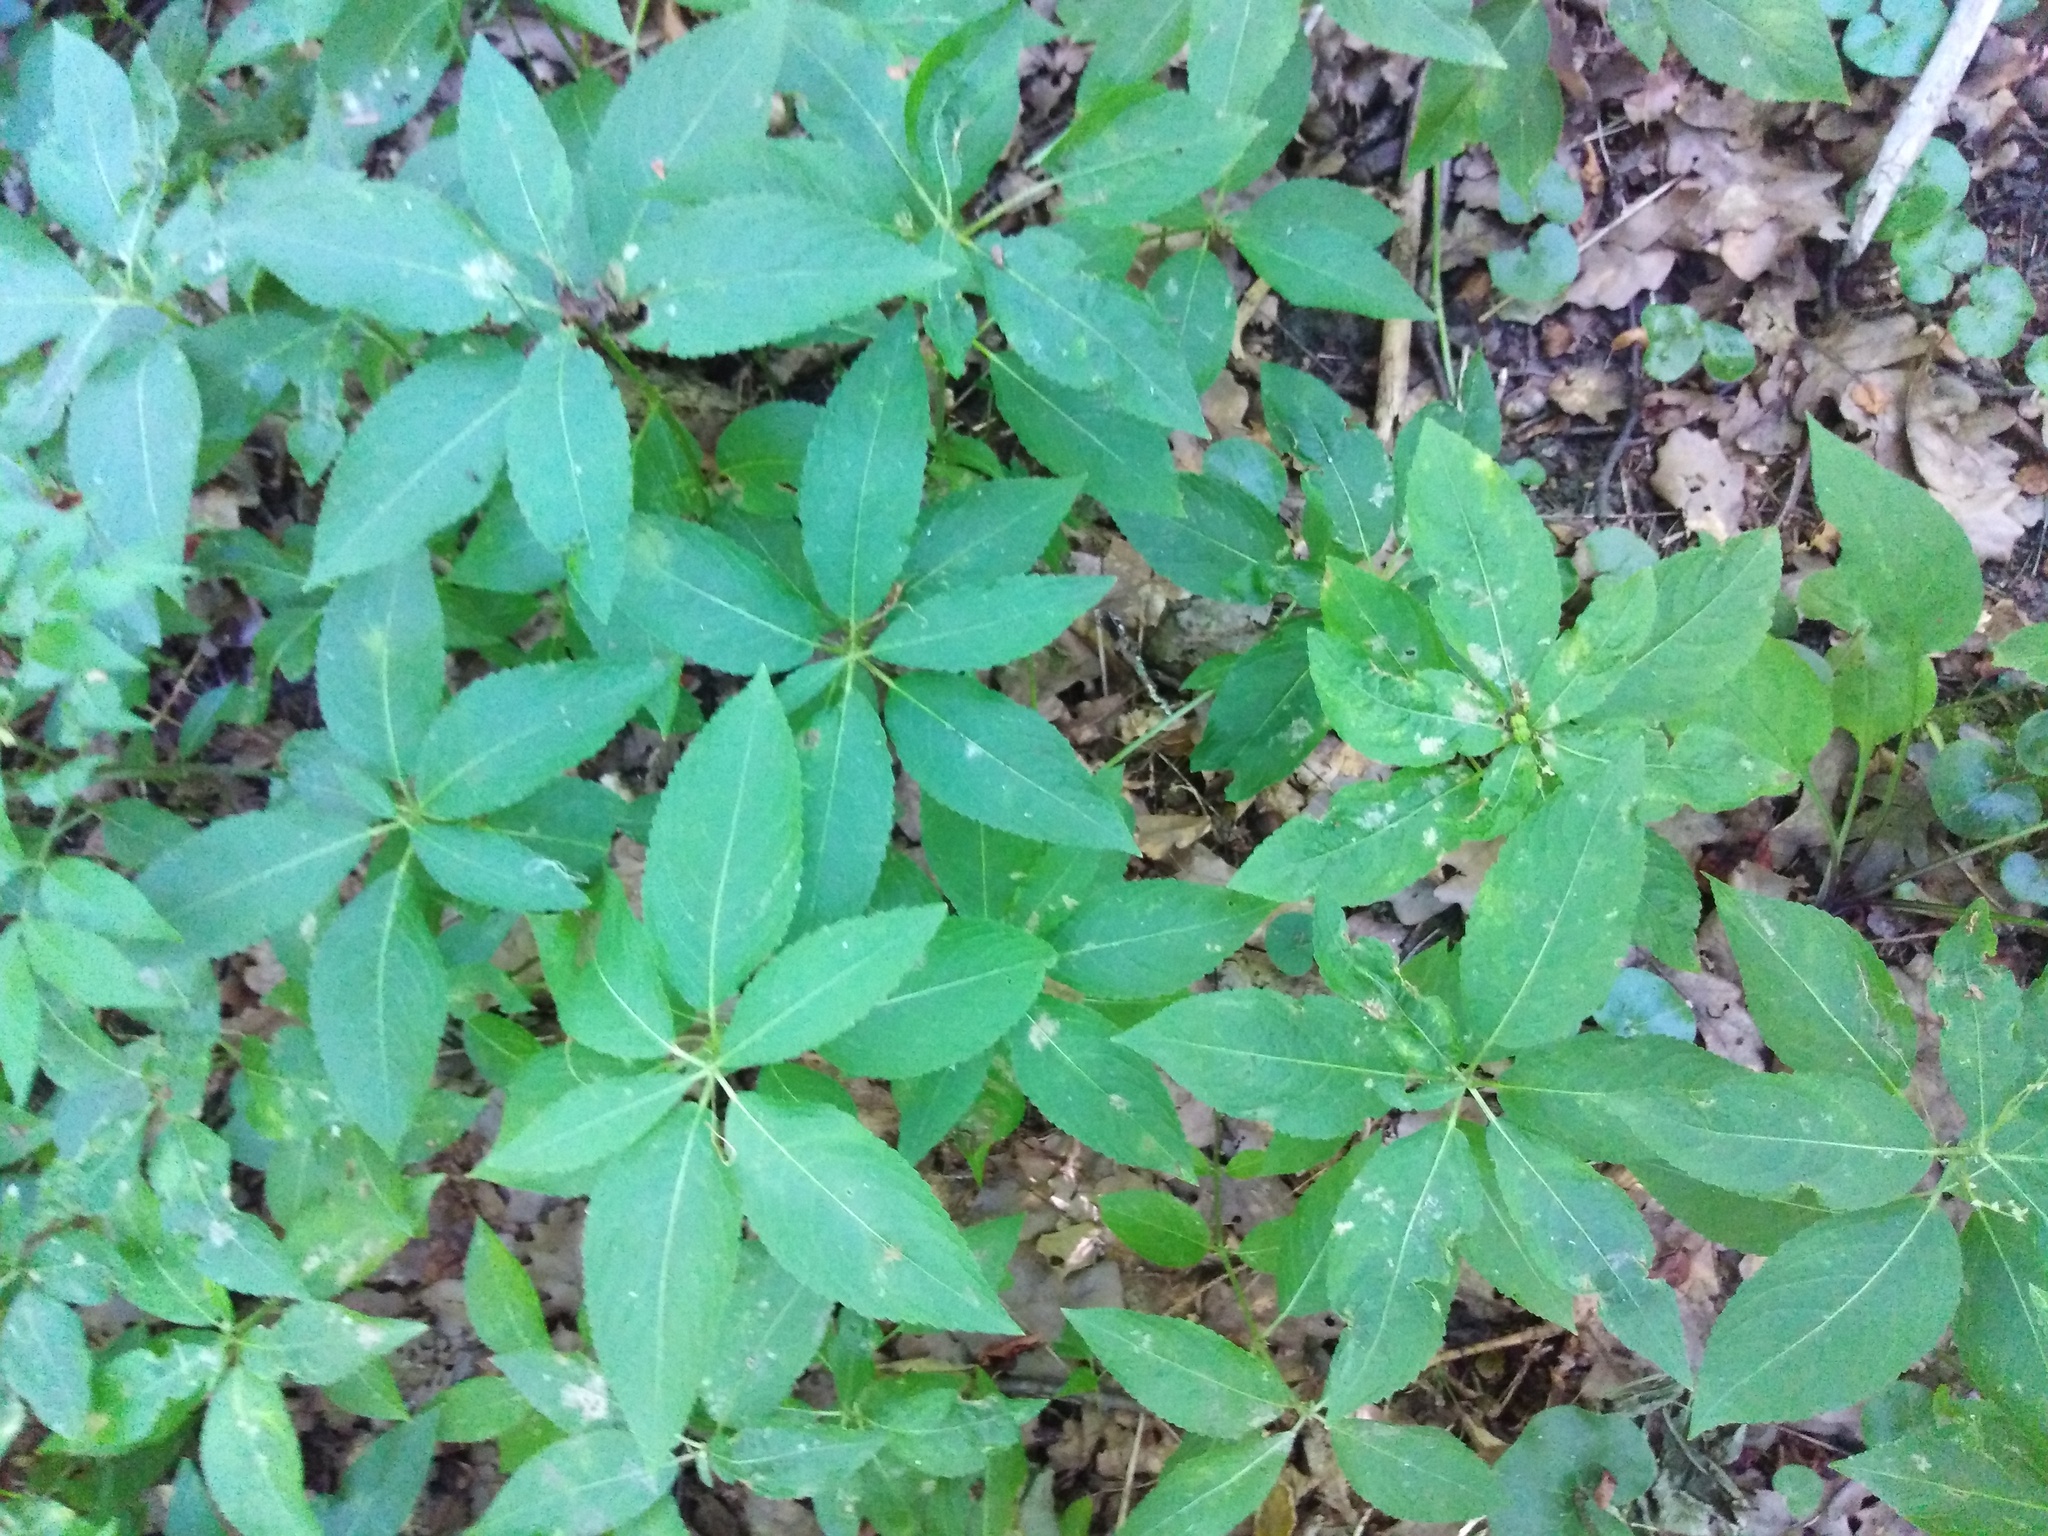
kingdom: Plantae
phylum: Tracheophyta
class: Magnoliopsida
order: Malpighiales
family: Euphorbiaceae
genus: Mercurialis
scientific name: Mercurialis perennis
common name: Dog mercury
